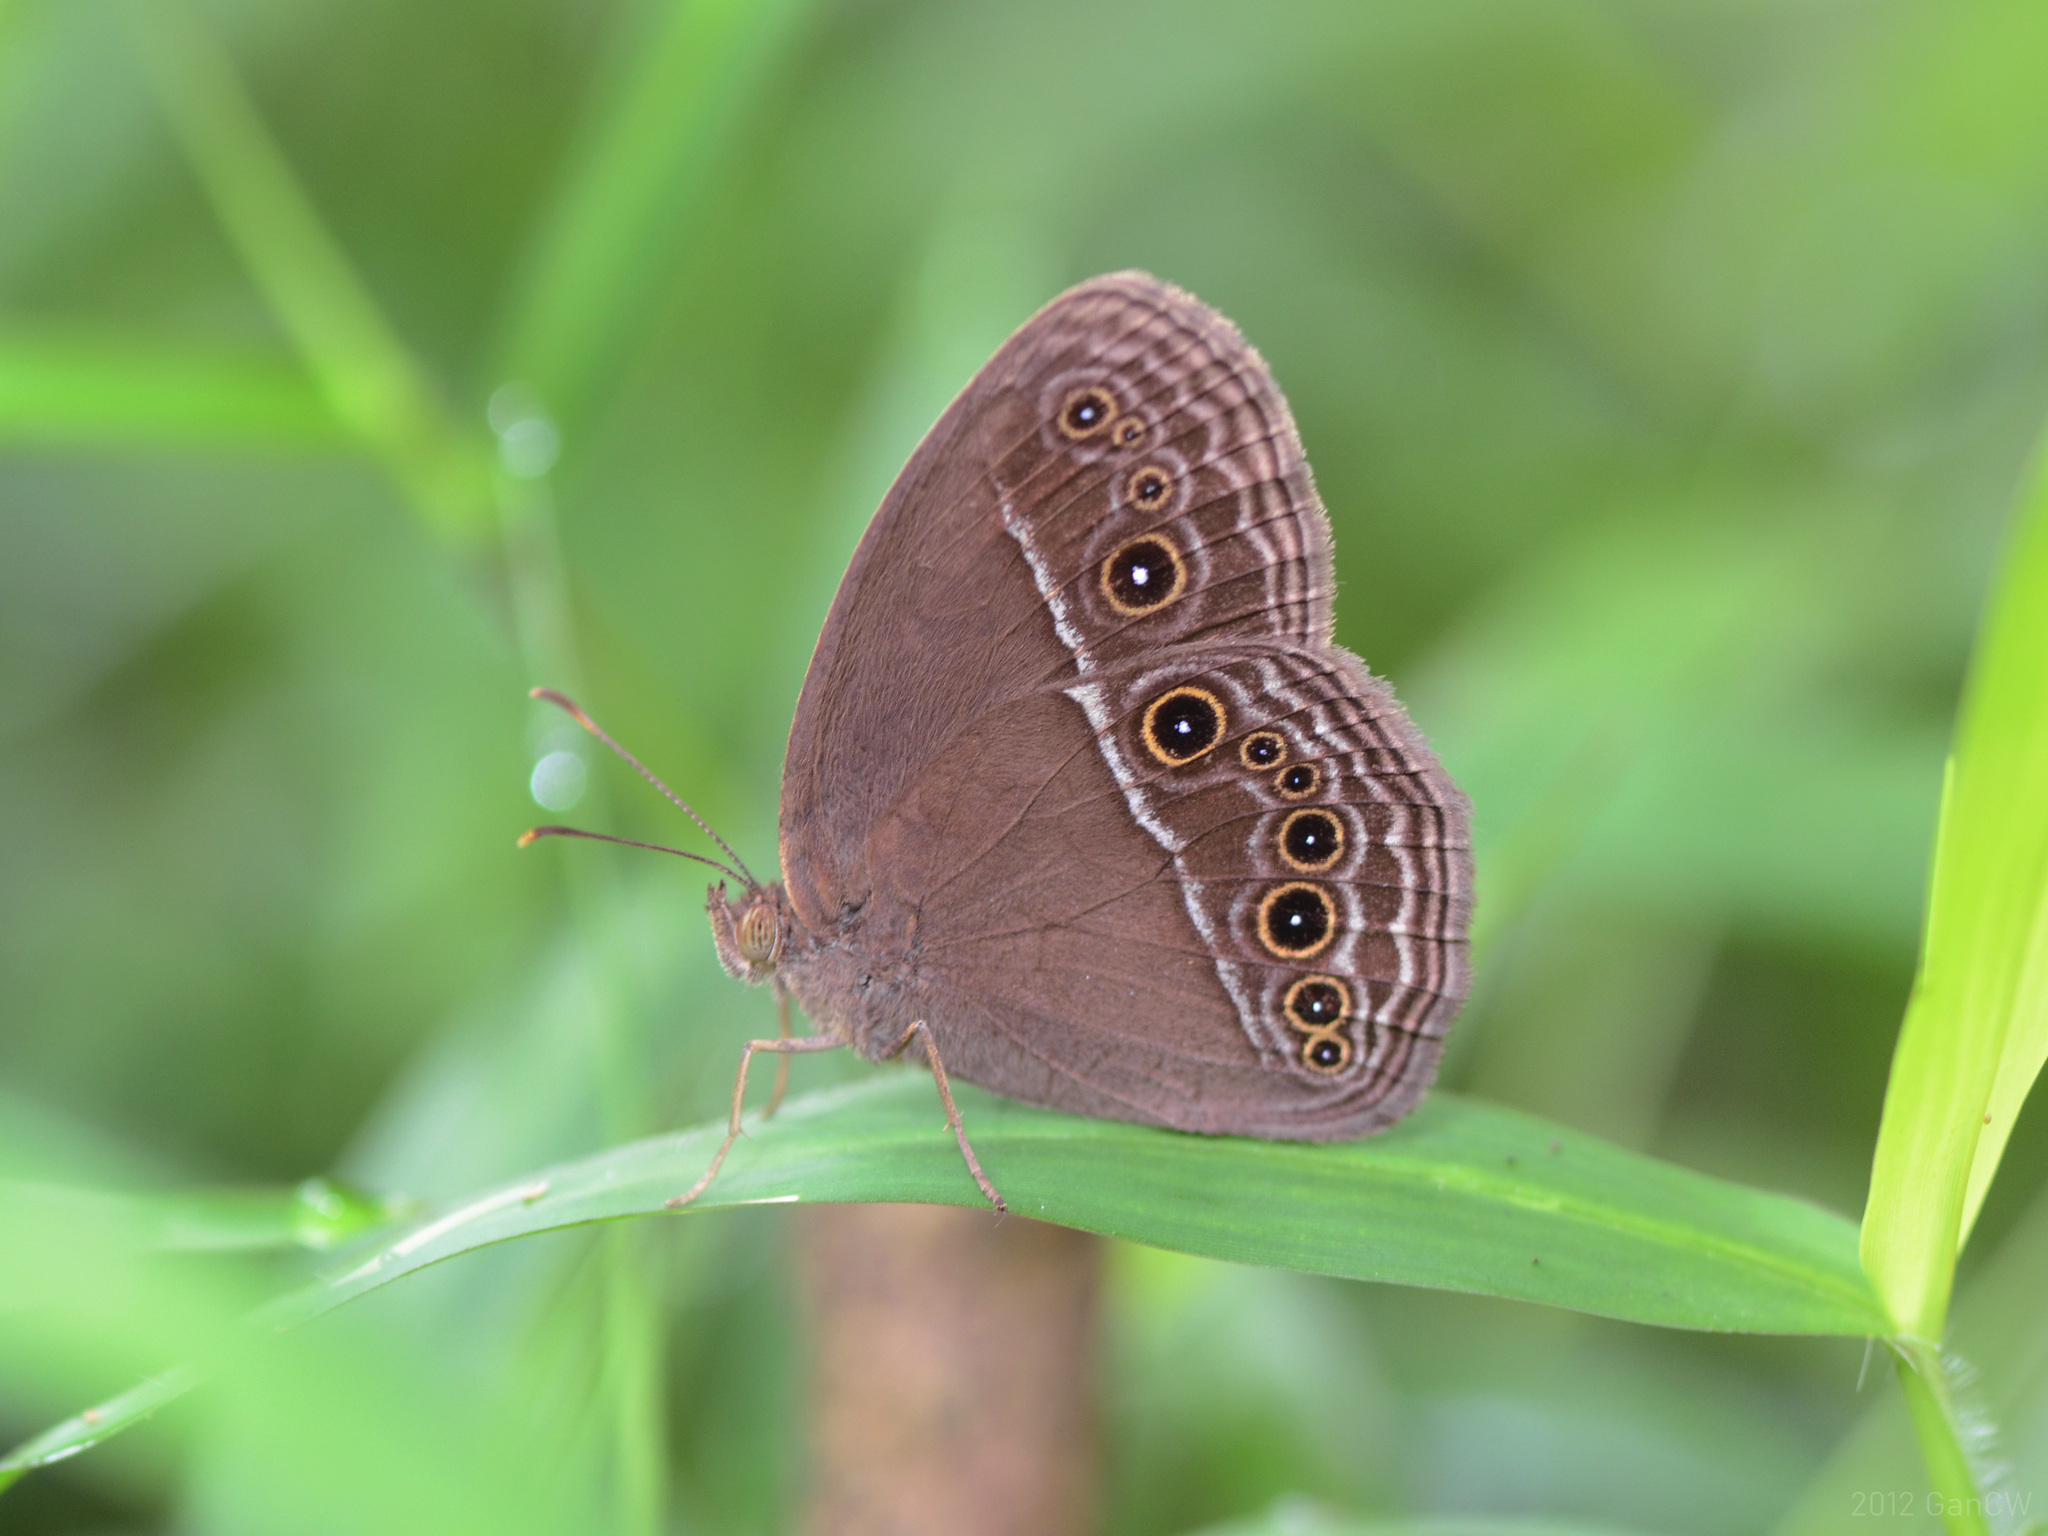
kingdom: Animalia
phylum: Arthropoda
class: Insecta
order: Lepidoptera
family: Nymphalidae
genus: Mycalesis
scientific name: Mycalesis perseus
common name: Dingy bushbrown
